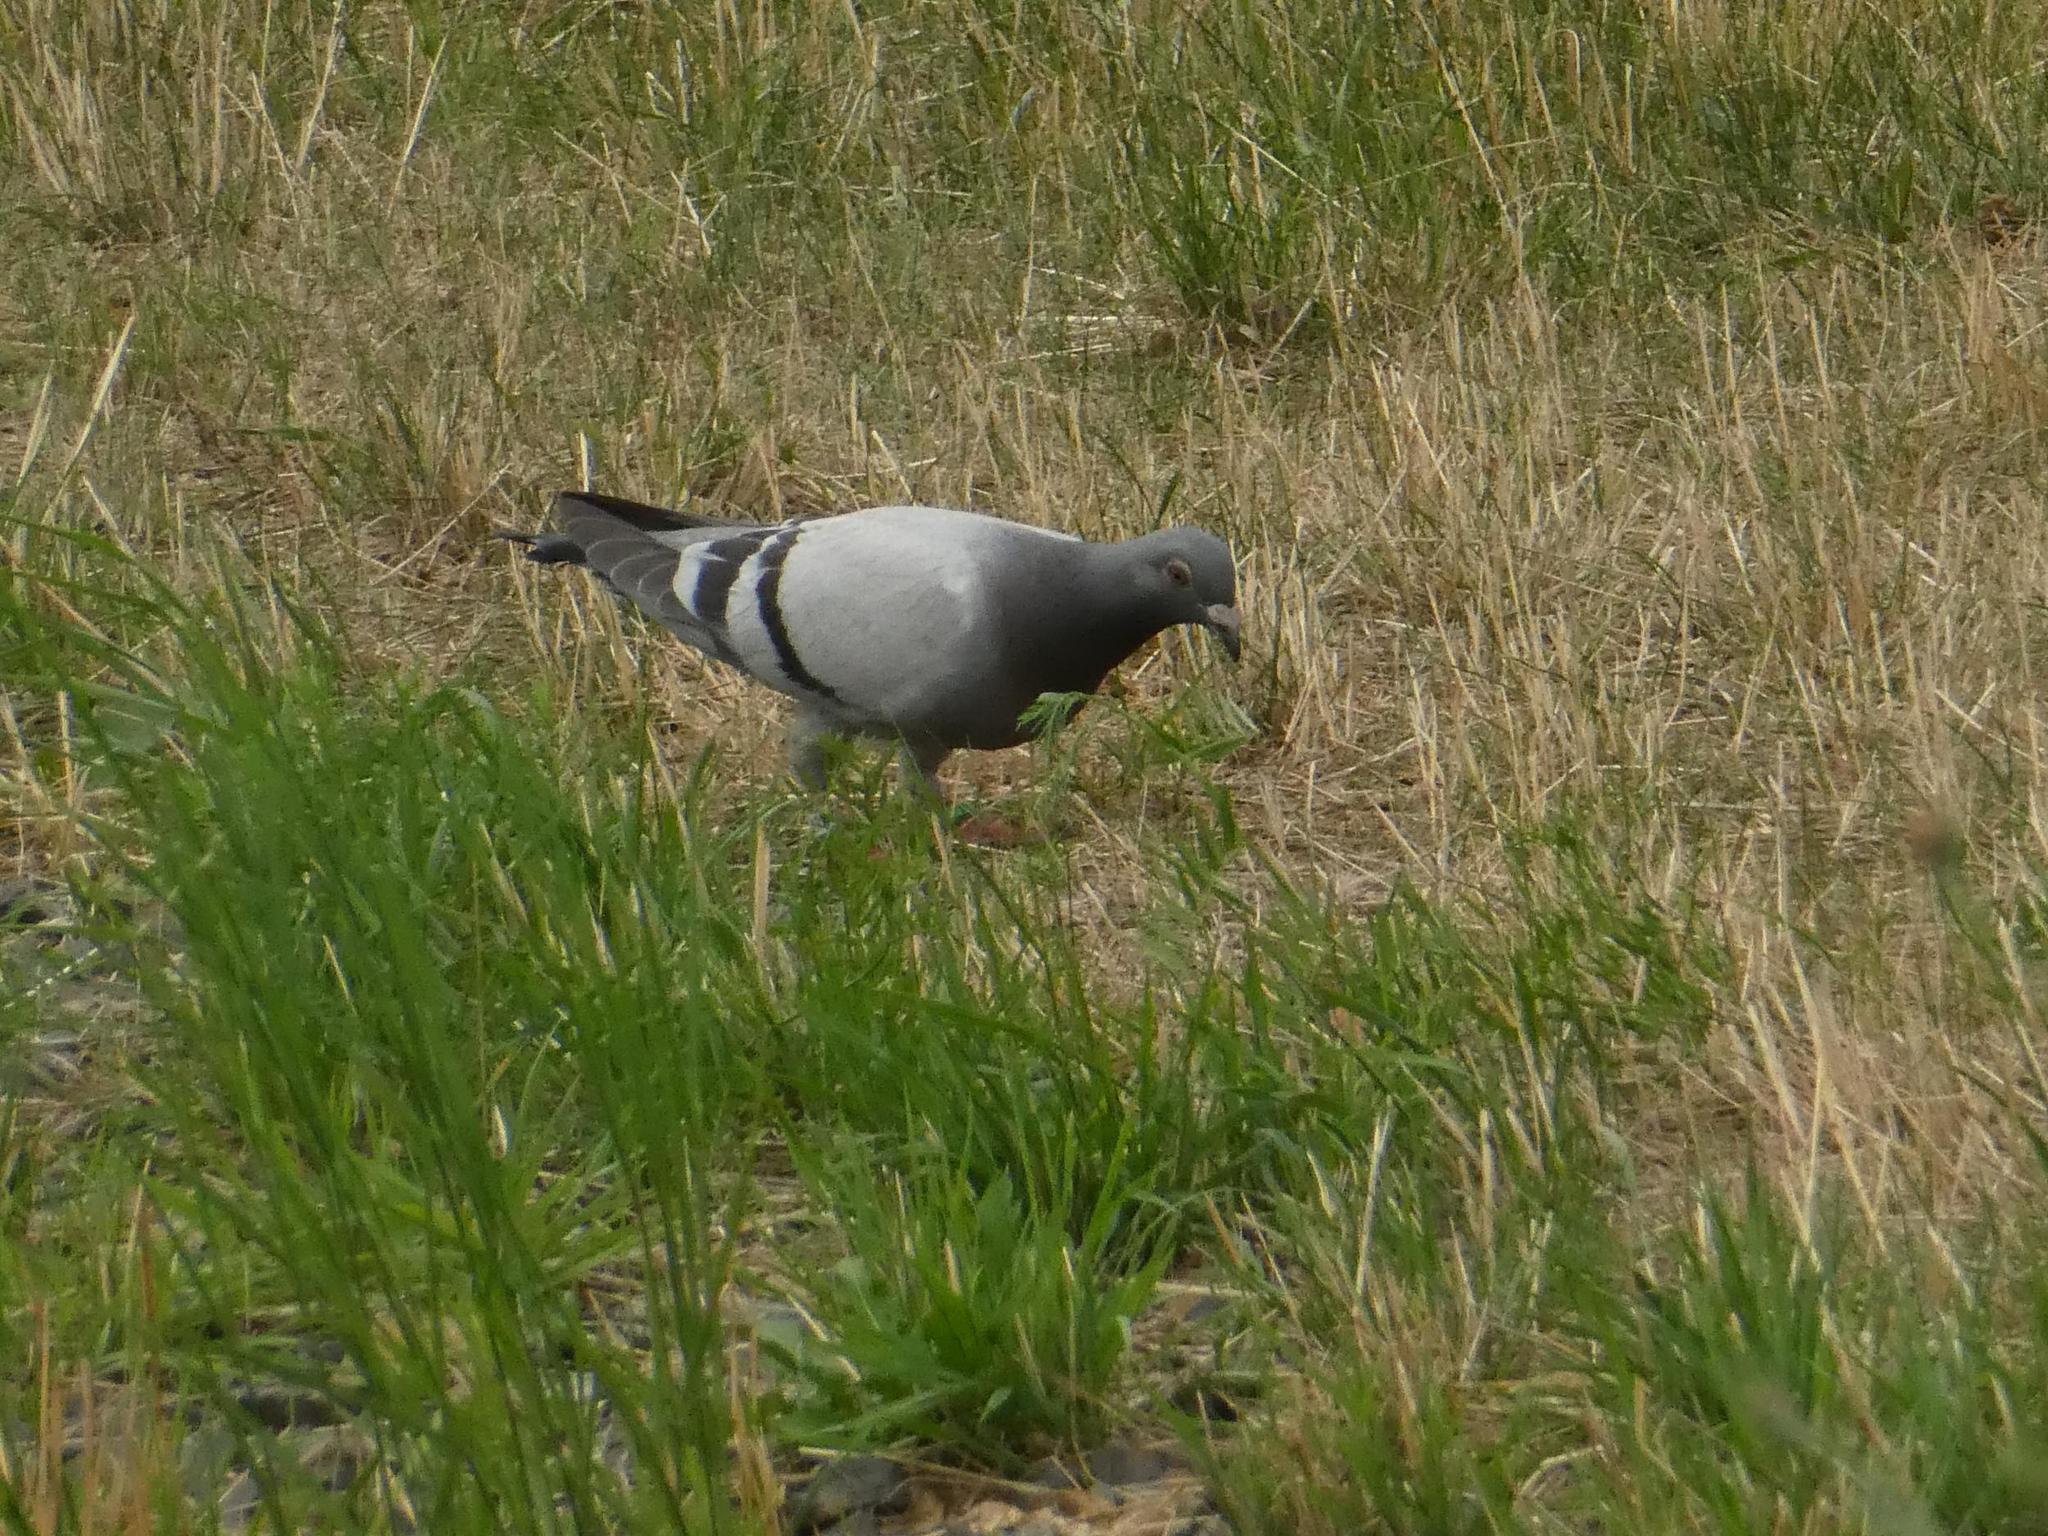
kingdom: Animalia
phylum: Chordata
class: Aves
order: Columbiformes
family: Columbidae
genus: Columba
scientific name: Columba livia
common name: Rock pigeon
